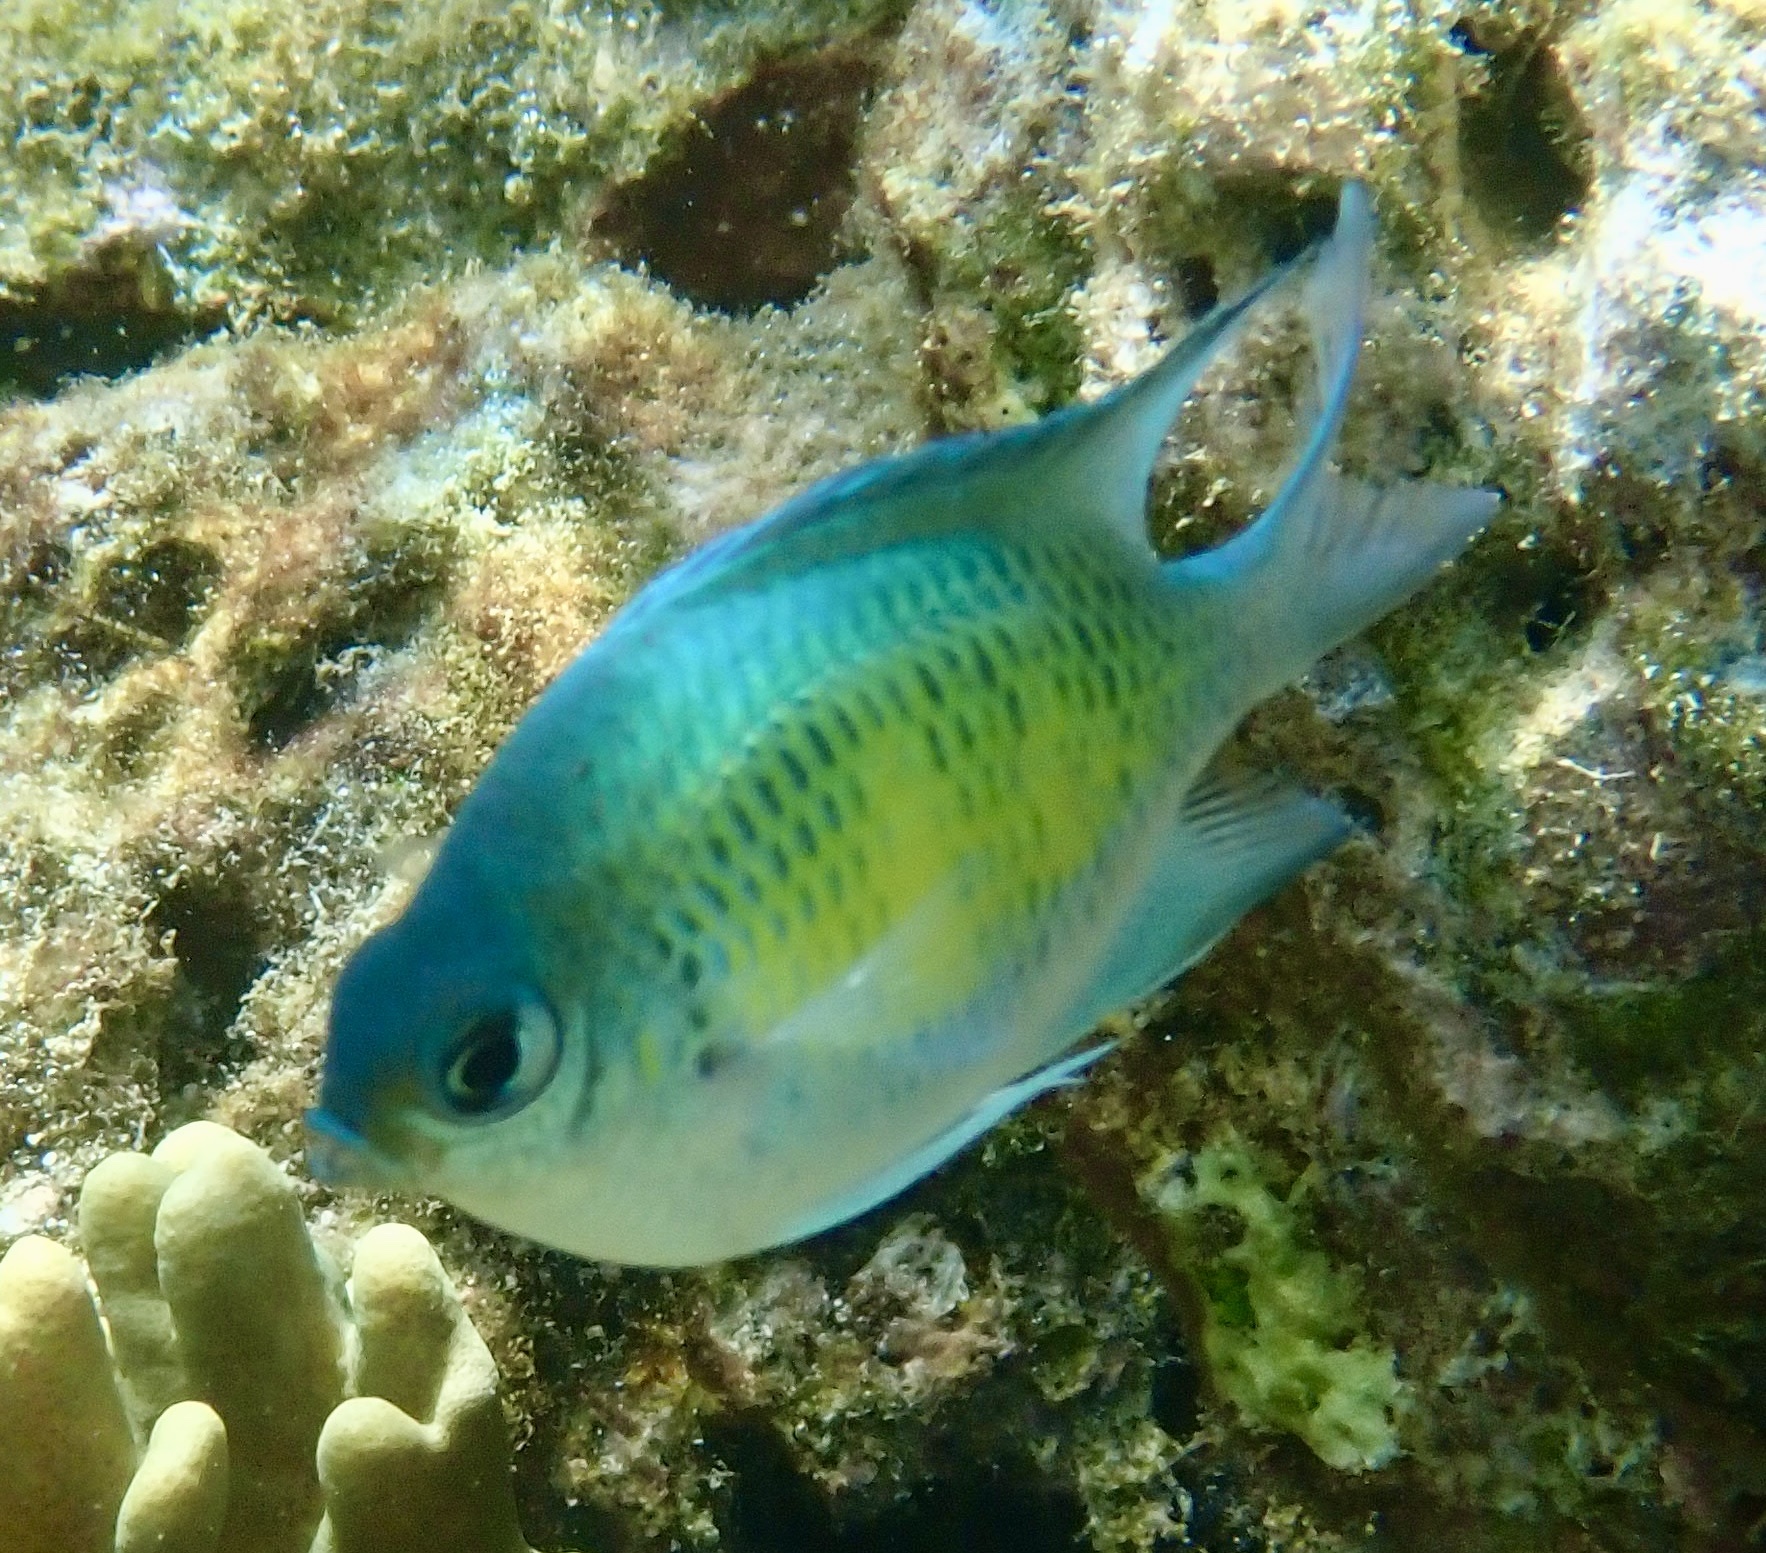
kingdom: Animalia
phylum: Chordata
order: Perciformes
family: Pomacentridae
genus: Amblyglyphidodon
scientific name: Amblyglyphidodon curacao
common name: Staghorn damsel
